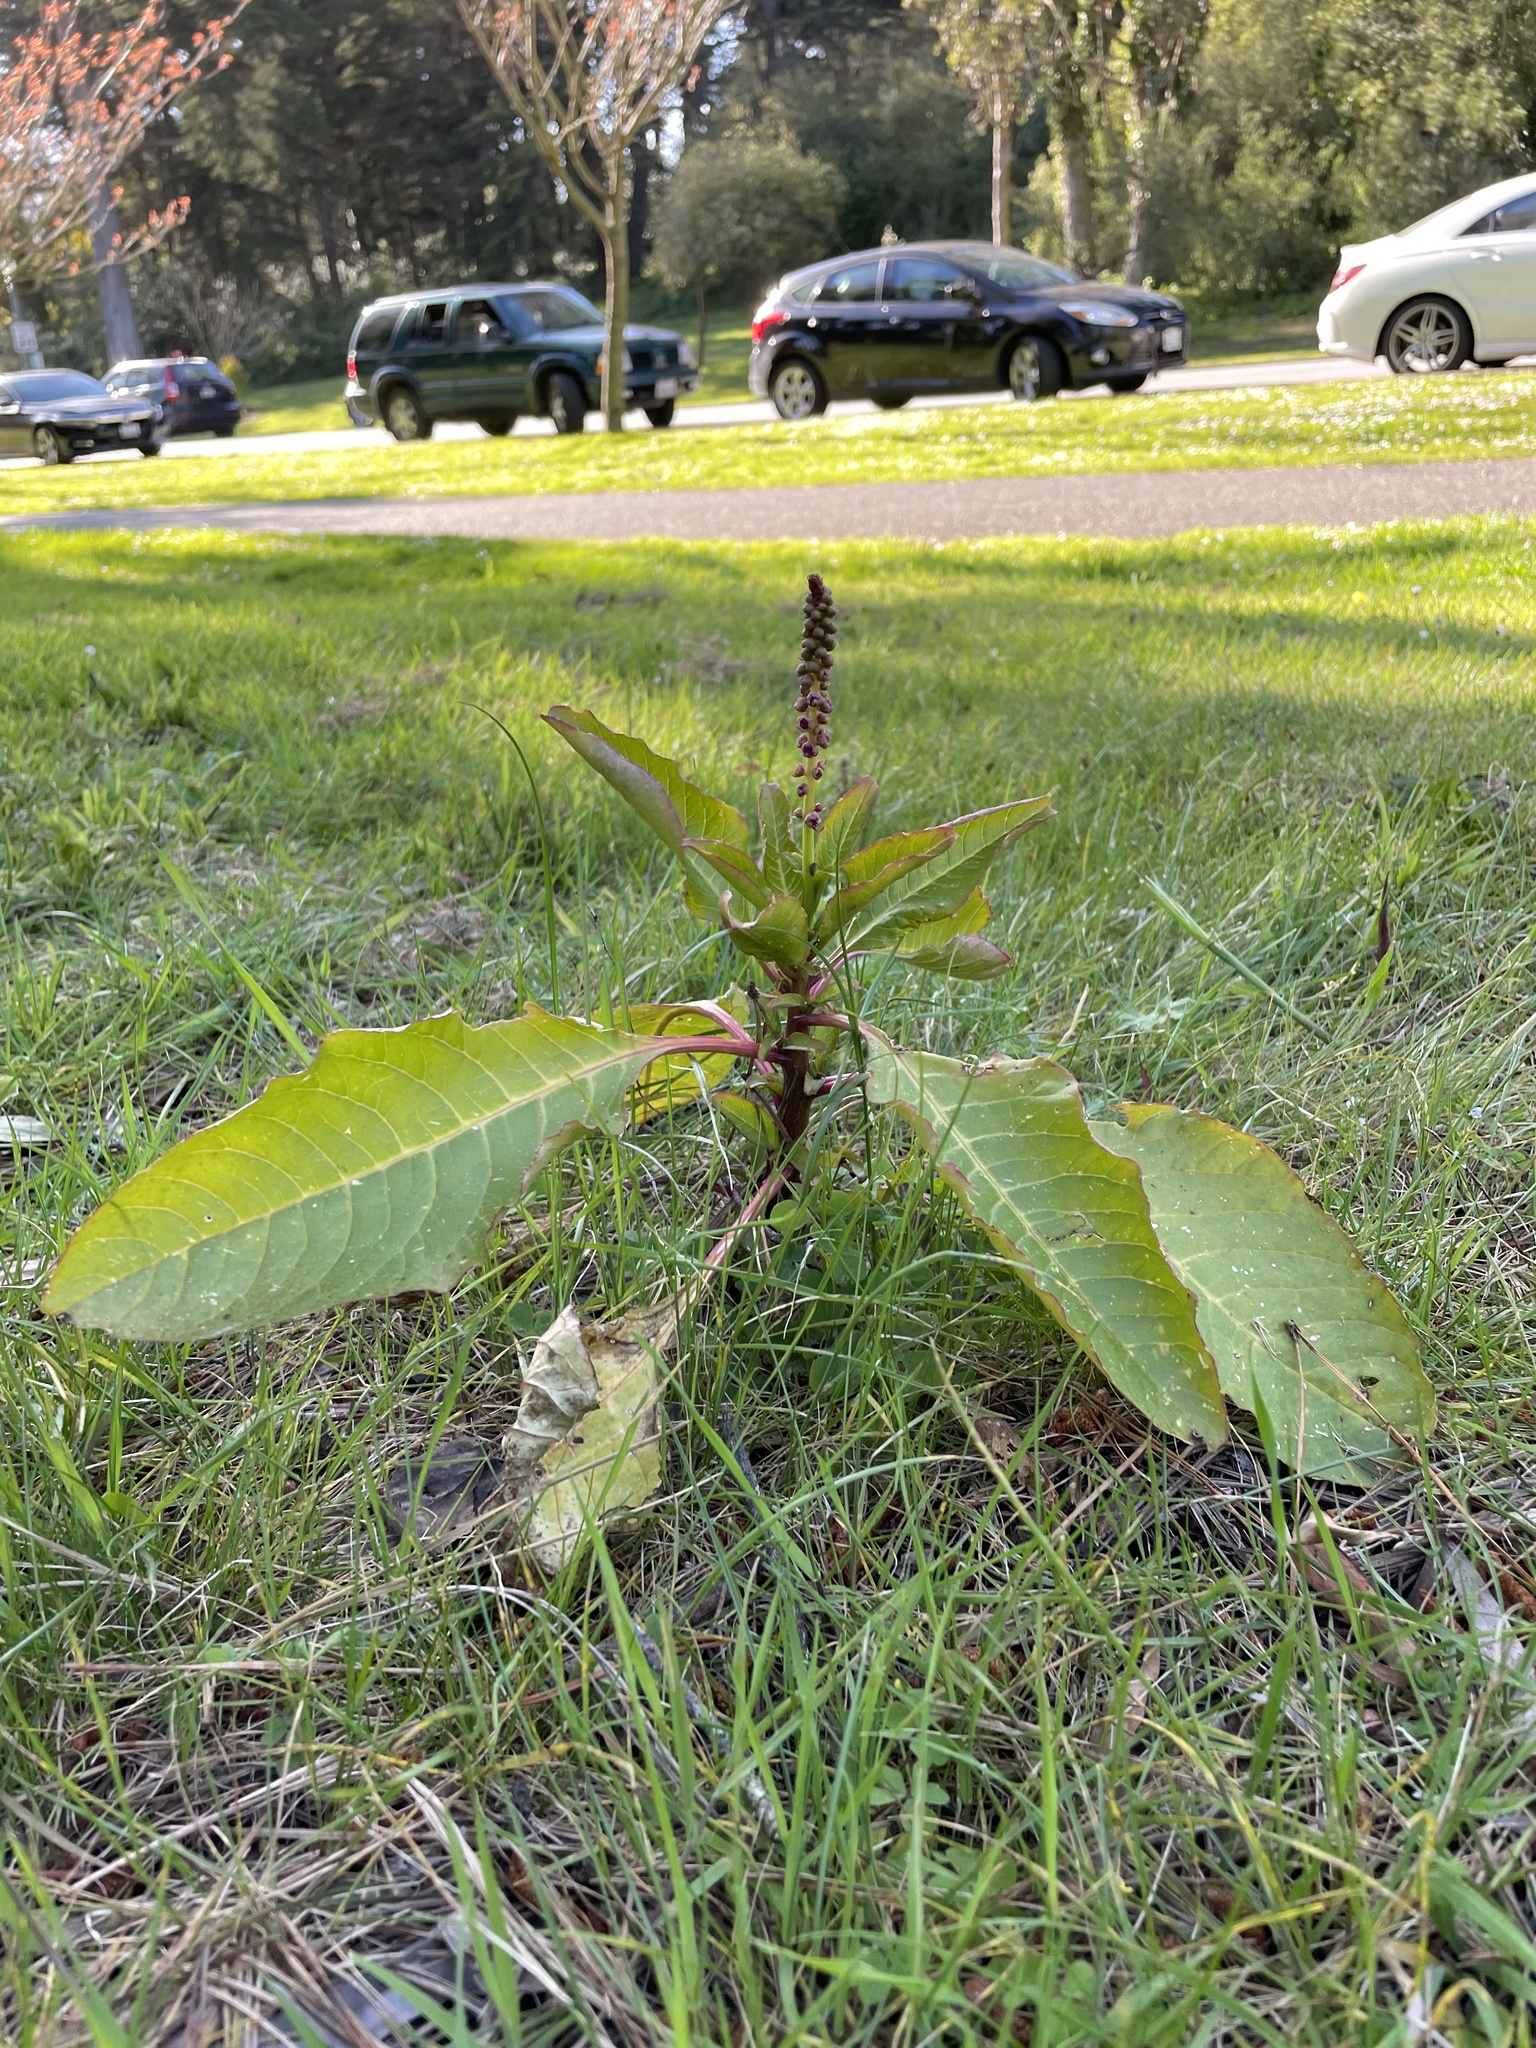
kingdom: Plantae
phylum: Tracheophyta
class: Magnoliopsida
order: Caryophyllales
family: Phytolaccaceae
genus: Phytolacca
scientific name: Phytolacca
